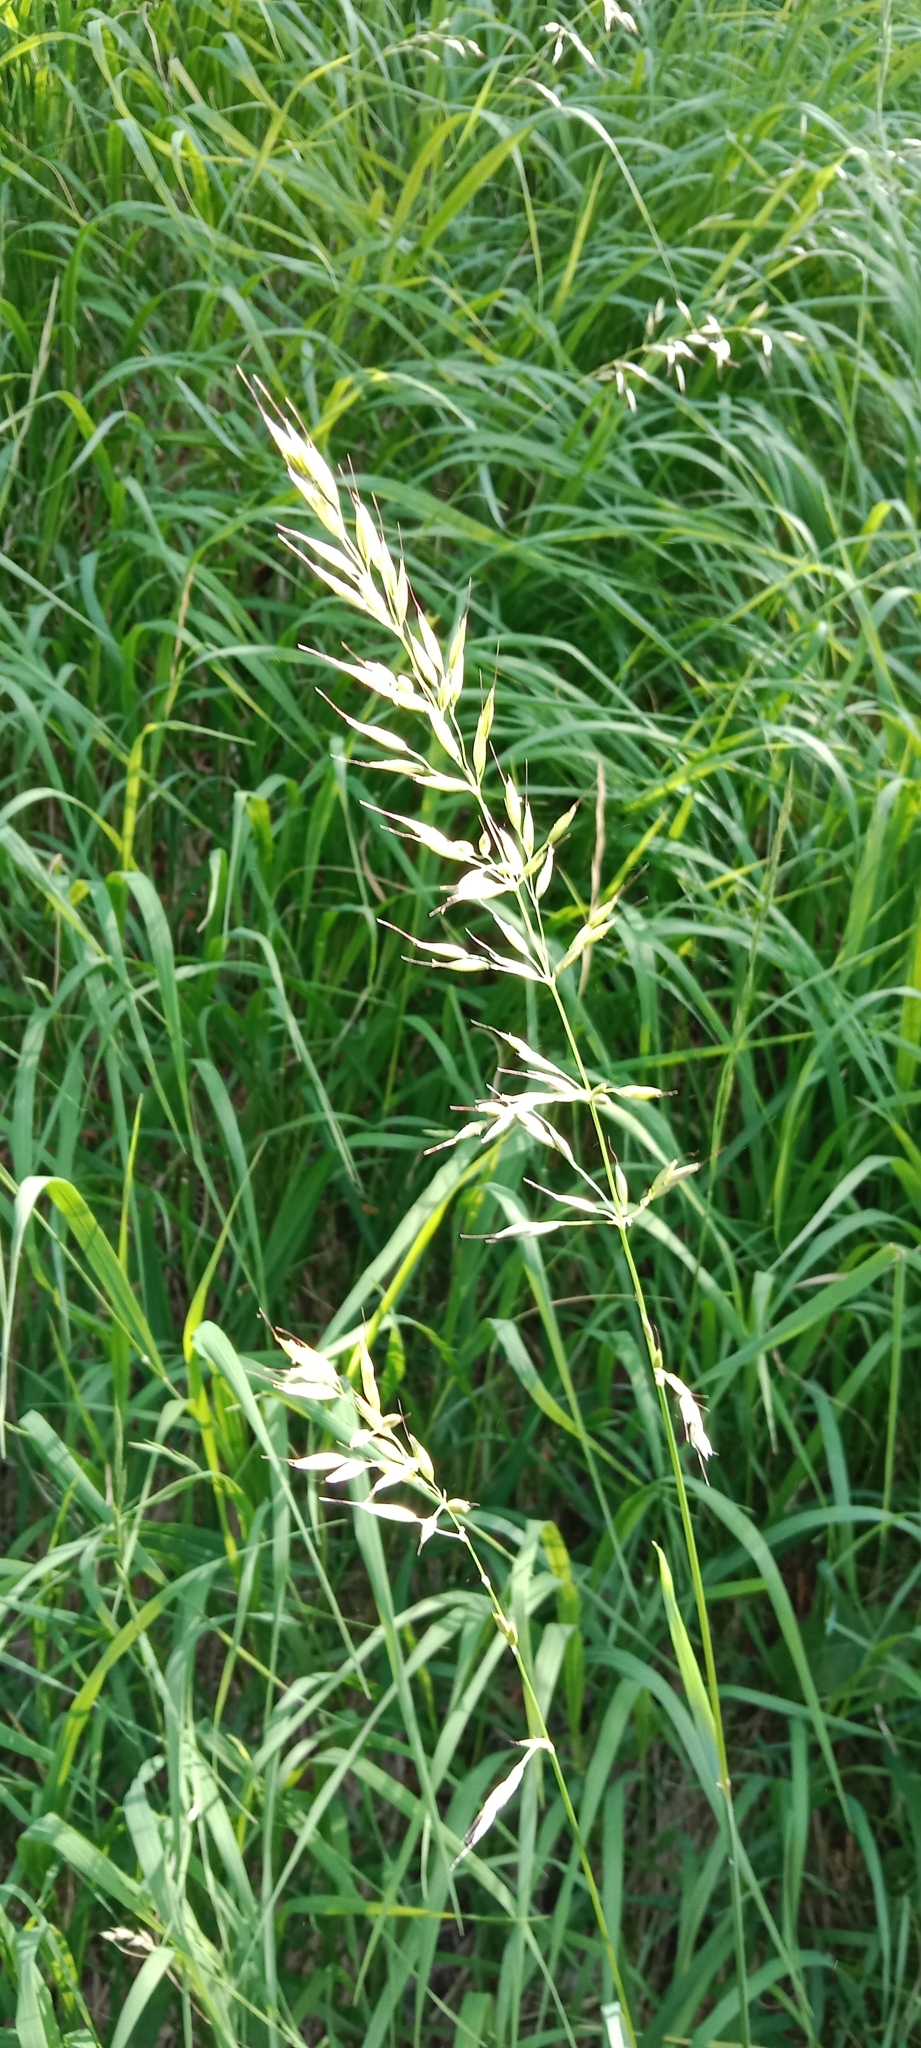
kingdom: Plantae
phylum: Tracheophyta
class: Liliopsida
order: Poales
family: Poaceae
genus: Arrhenatherum
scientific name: Arrhenatherum elatius
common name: Tall oatgrass
